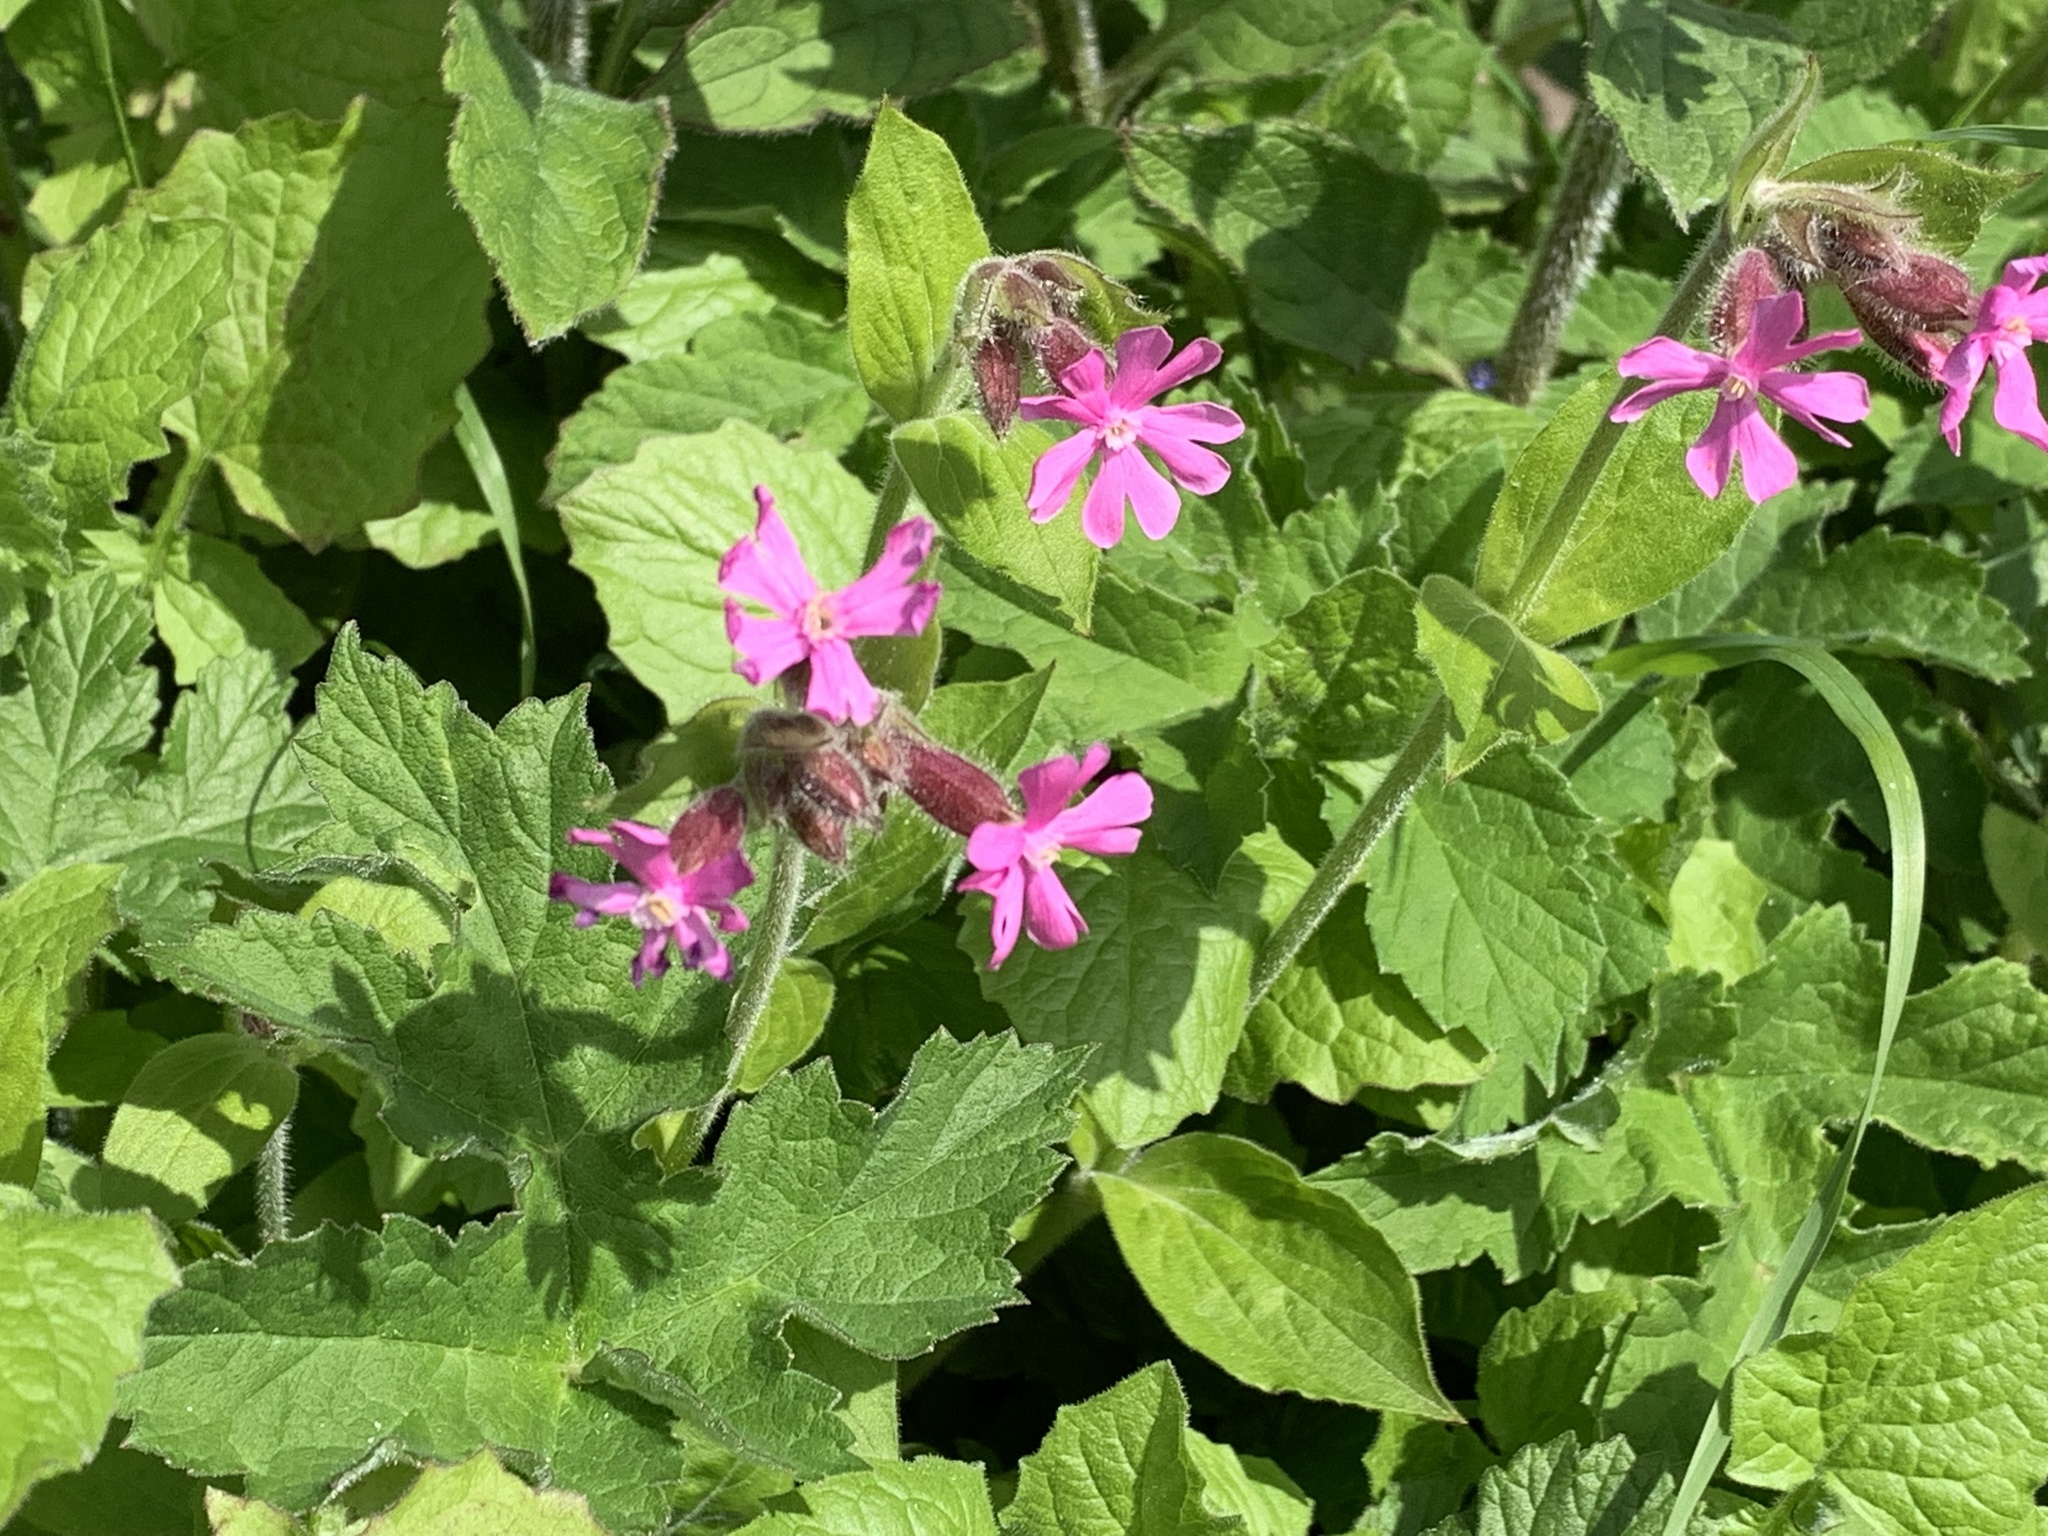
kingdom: Plantae
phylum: Tracheophyta
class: Magnoliopsida
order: Caryophyllales
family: Caryophyllaceae
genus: Silene
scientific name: Silene dioica
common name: Red campion
